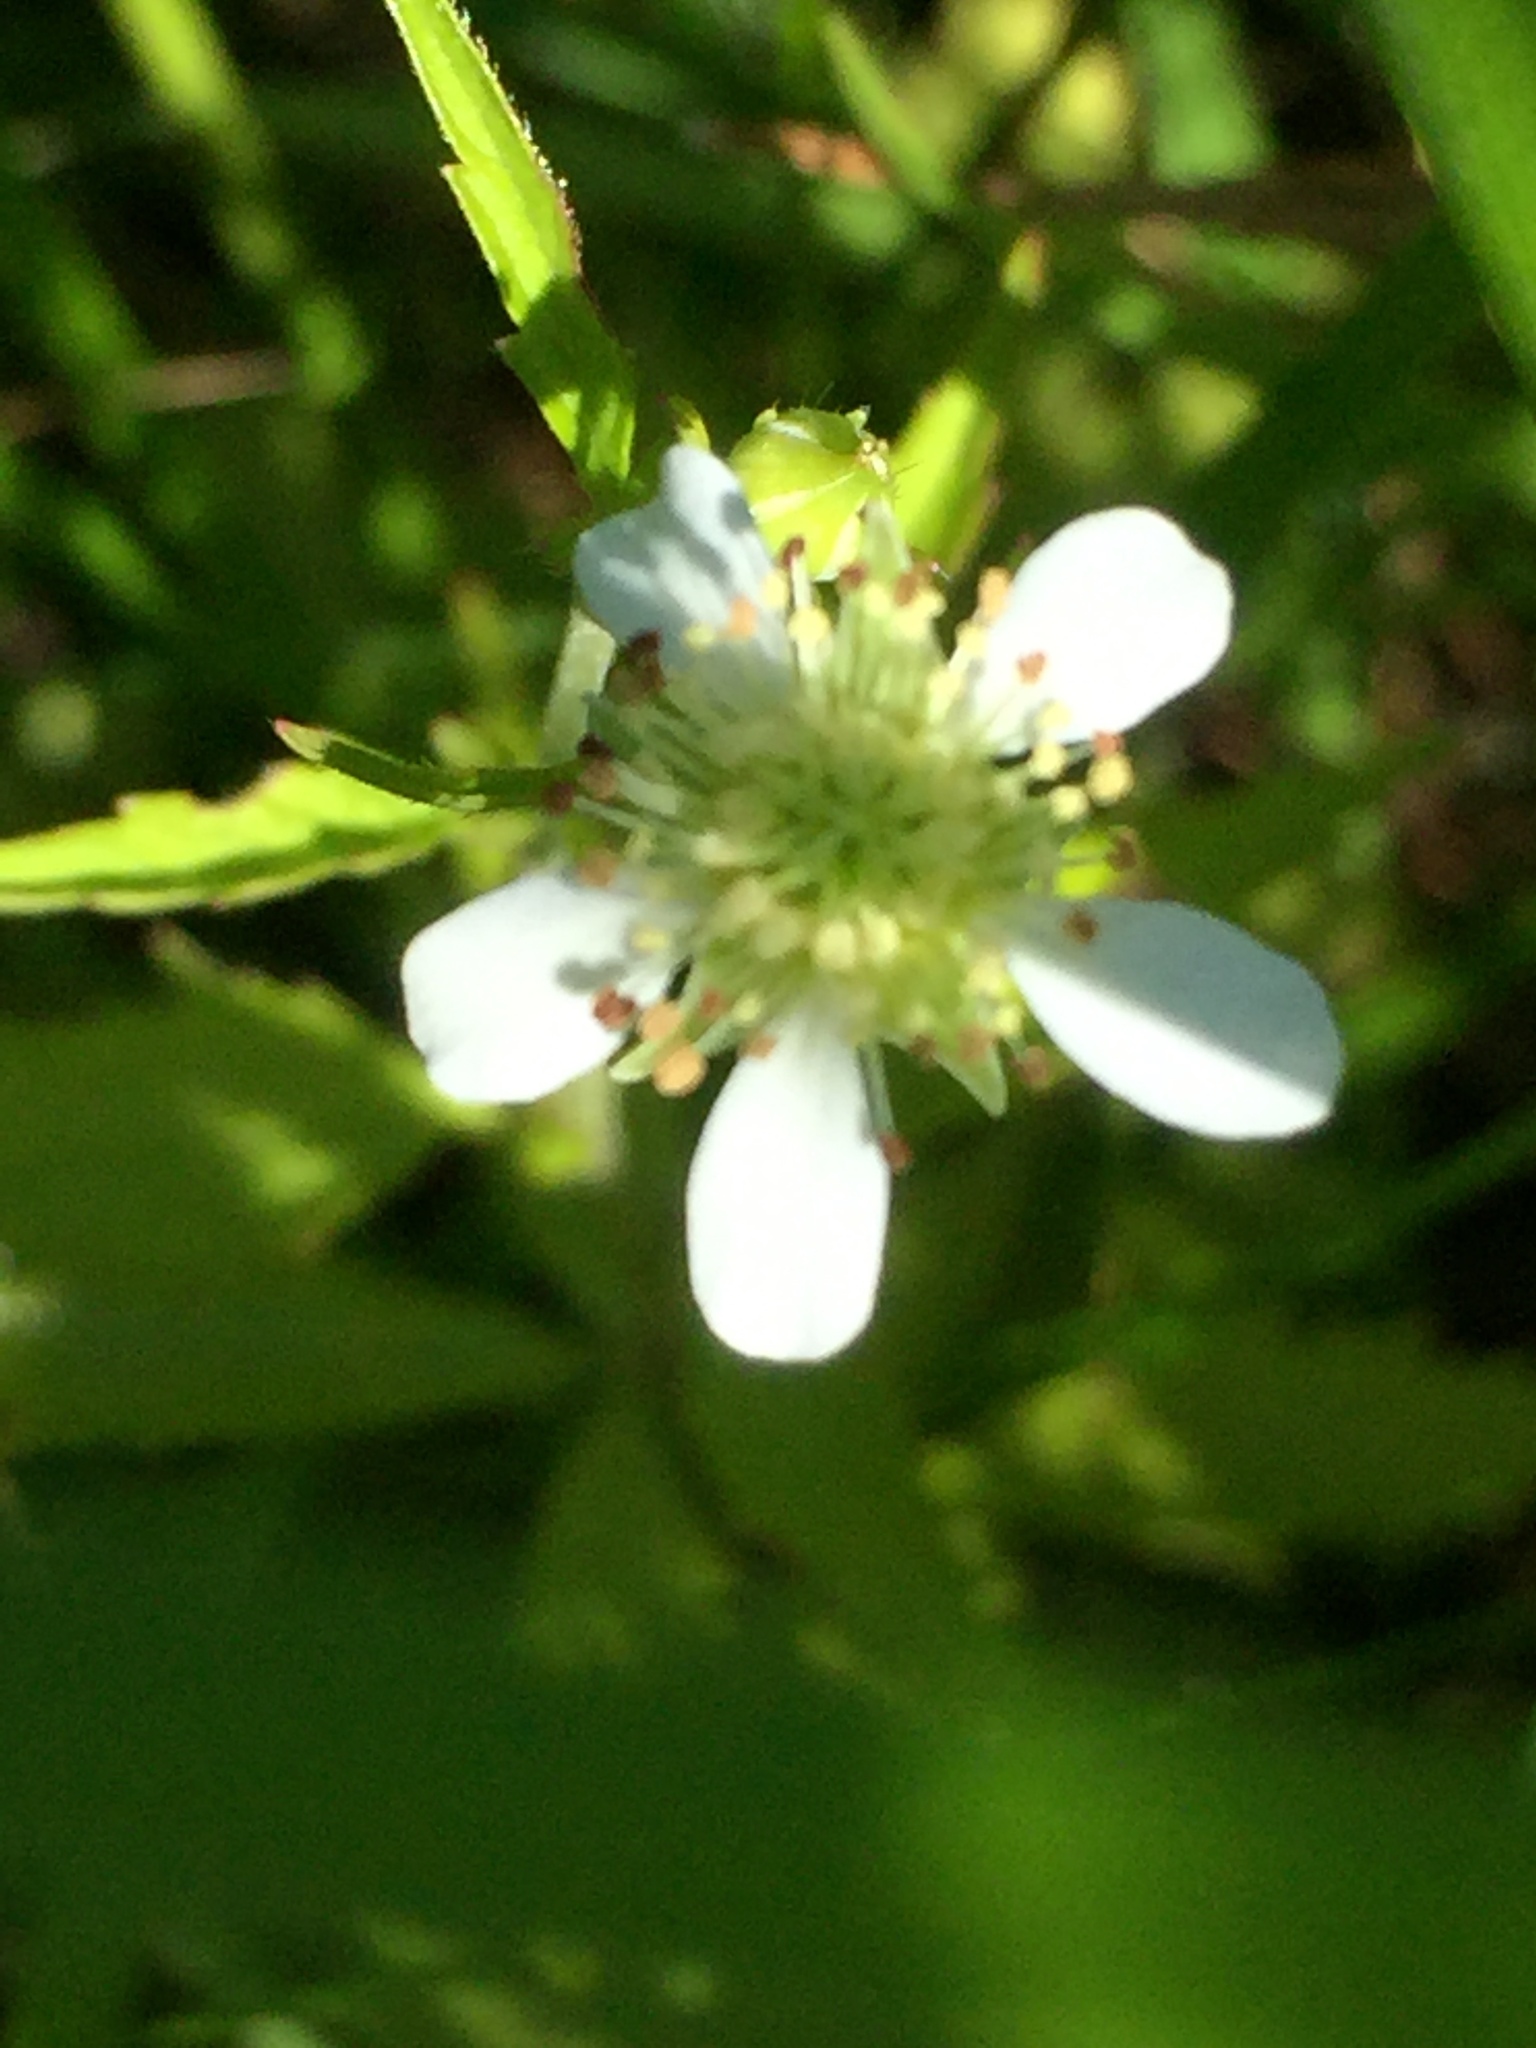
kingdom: Plantae
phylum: Tracheophyta
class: Magnoliopsida
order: Rosales
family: Rosaceae
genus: Geum
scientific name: Geum canadense
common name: White avens
